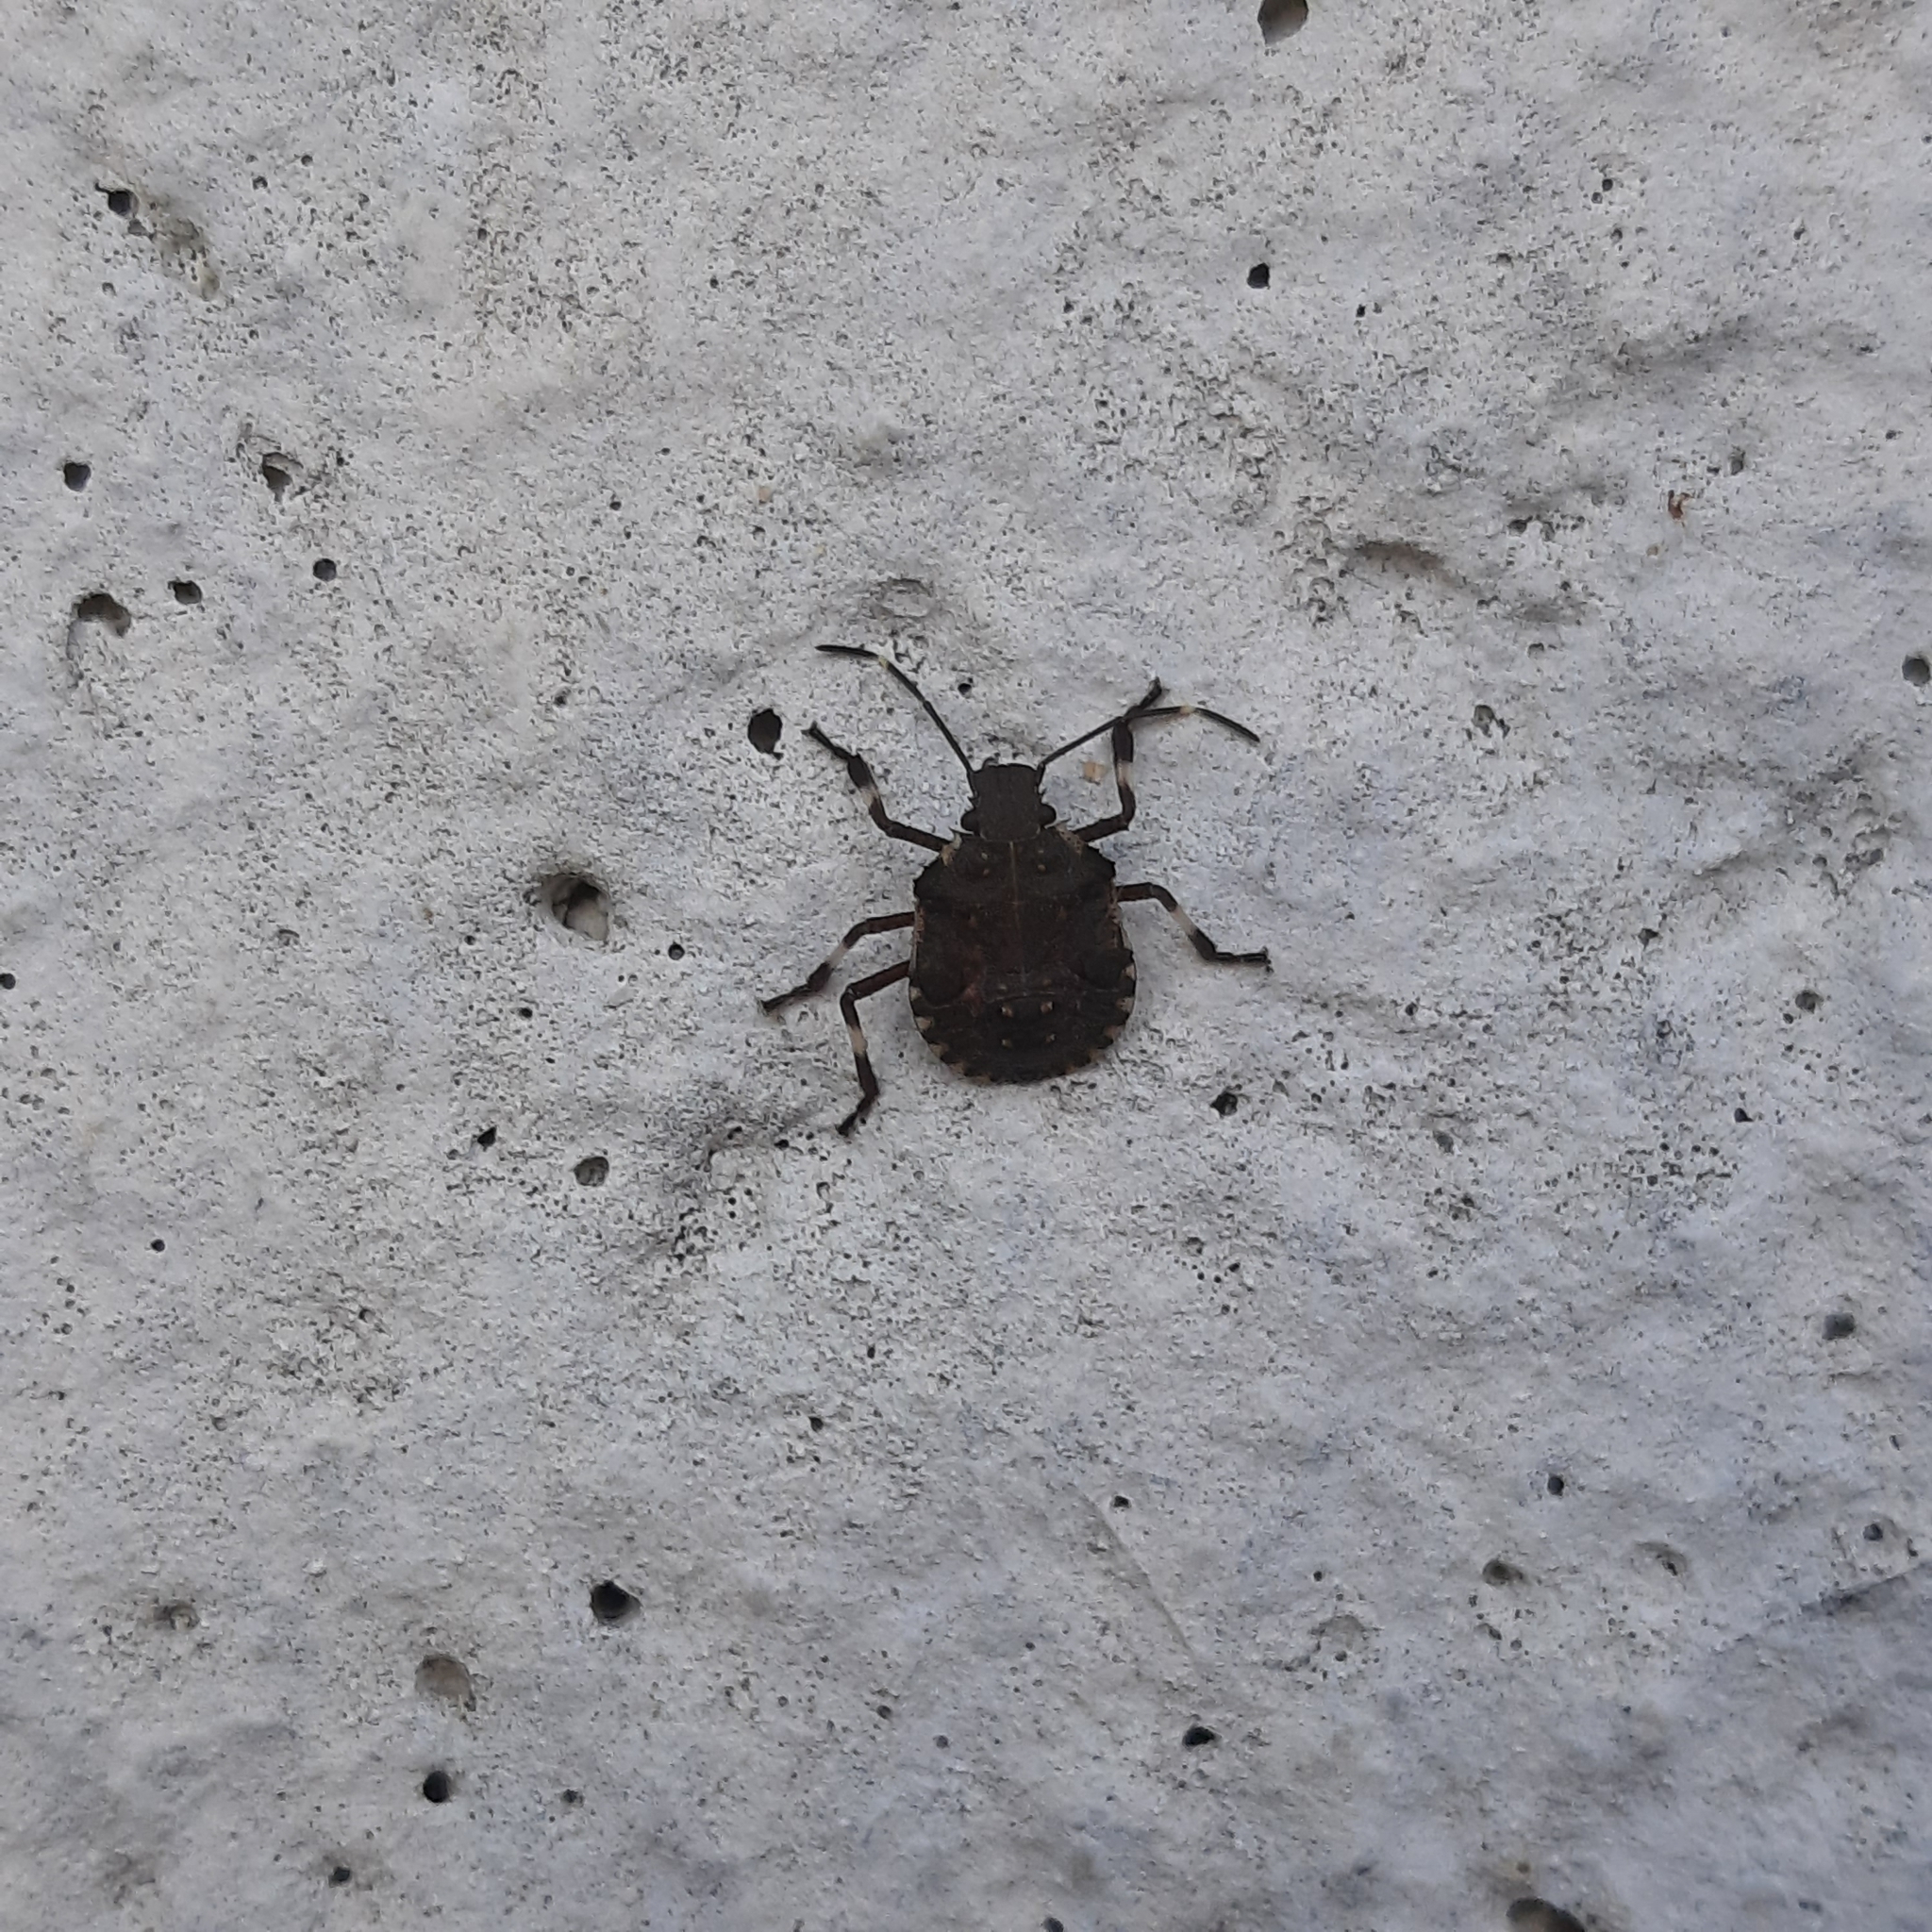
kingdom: Animalia
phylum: Arthropoda
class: Insecta
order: Hemiptera
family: Pentatomidae
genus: Halyomorpha
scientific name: Halyomorpha halys
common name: Brown marmorated stink bug
